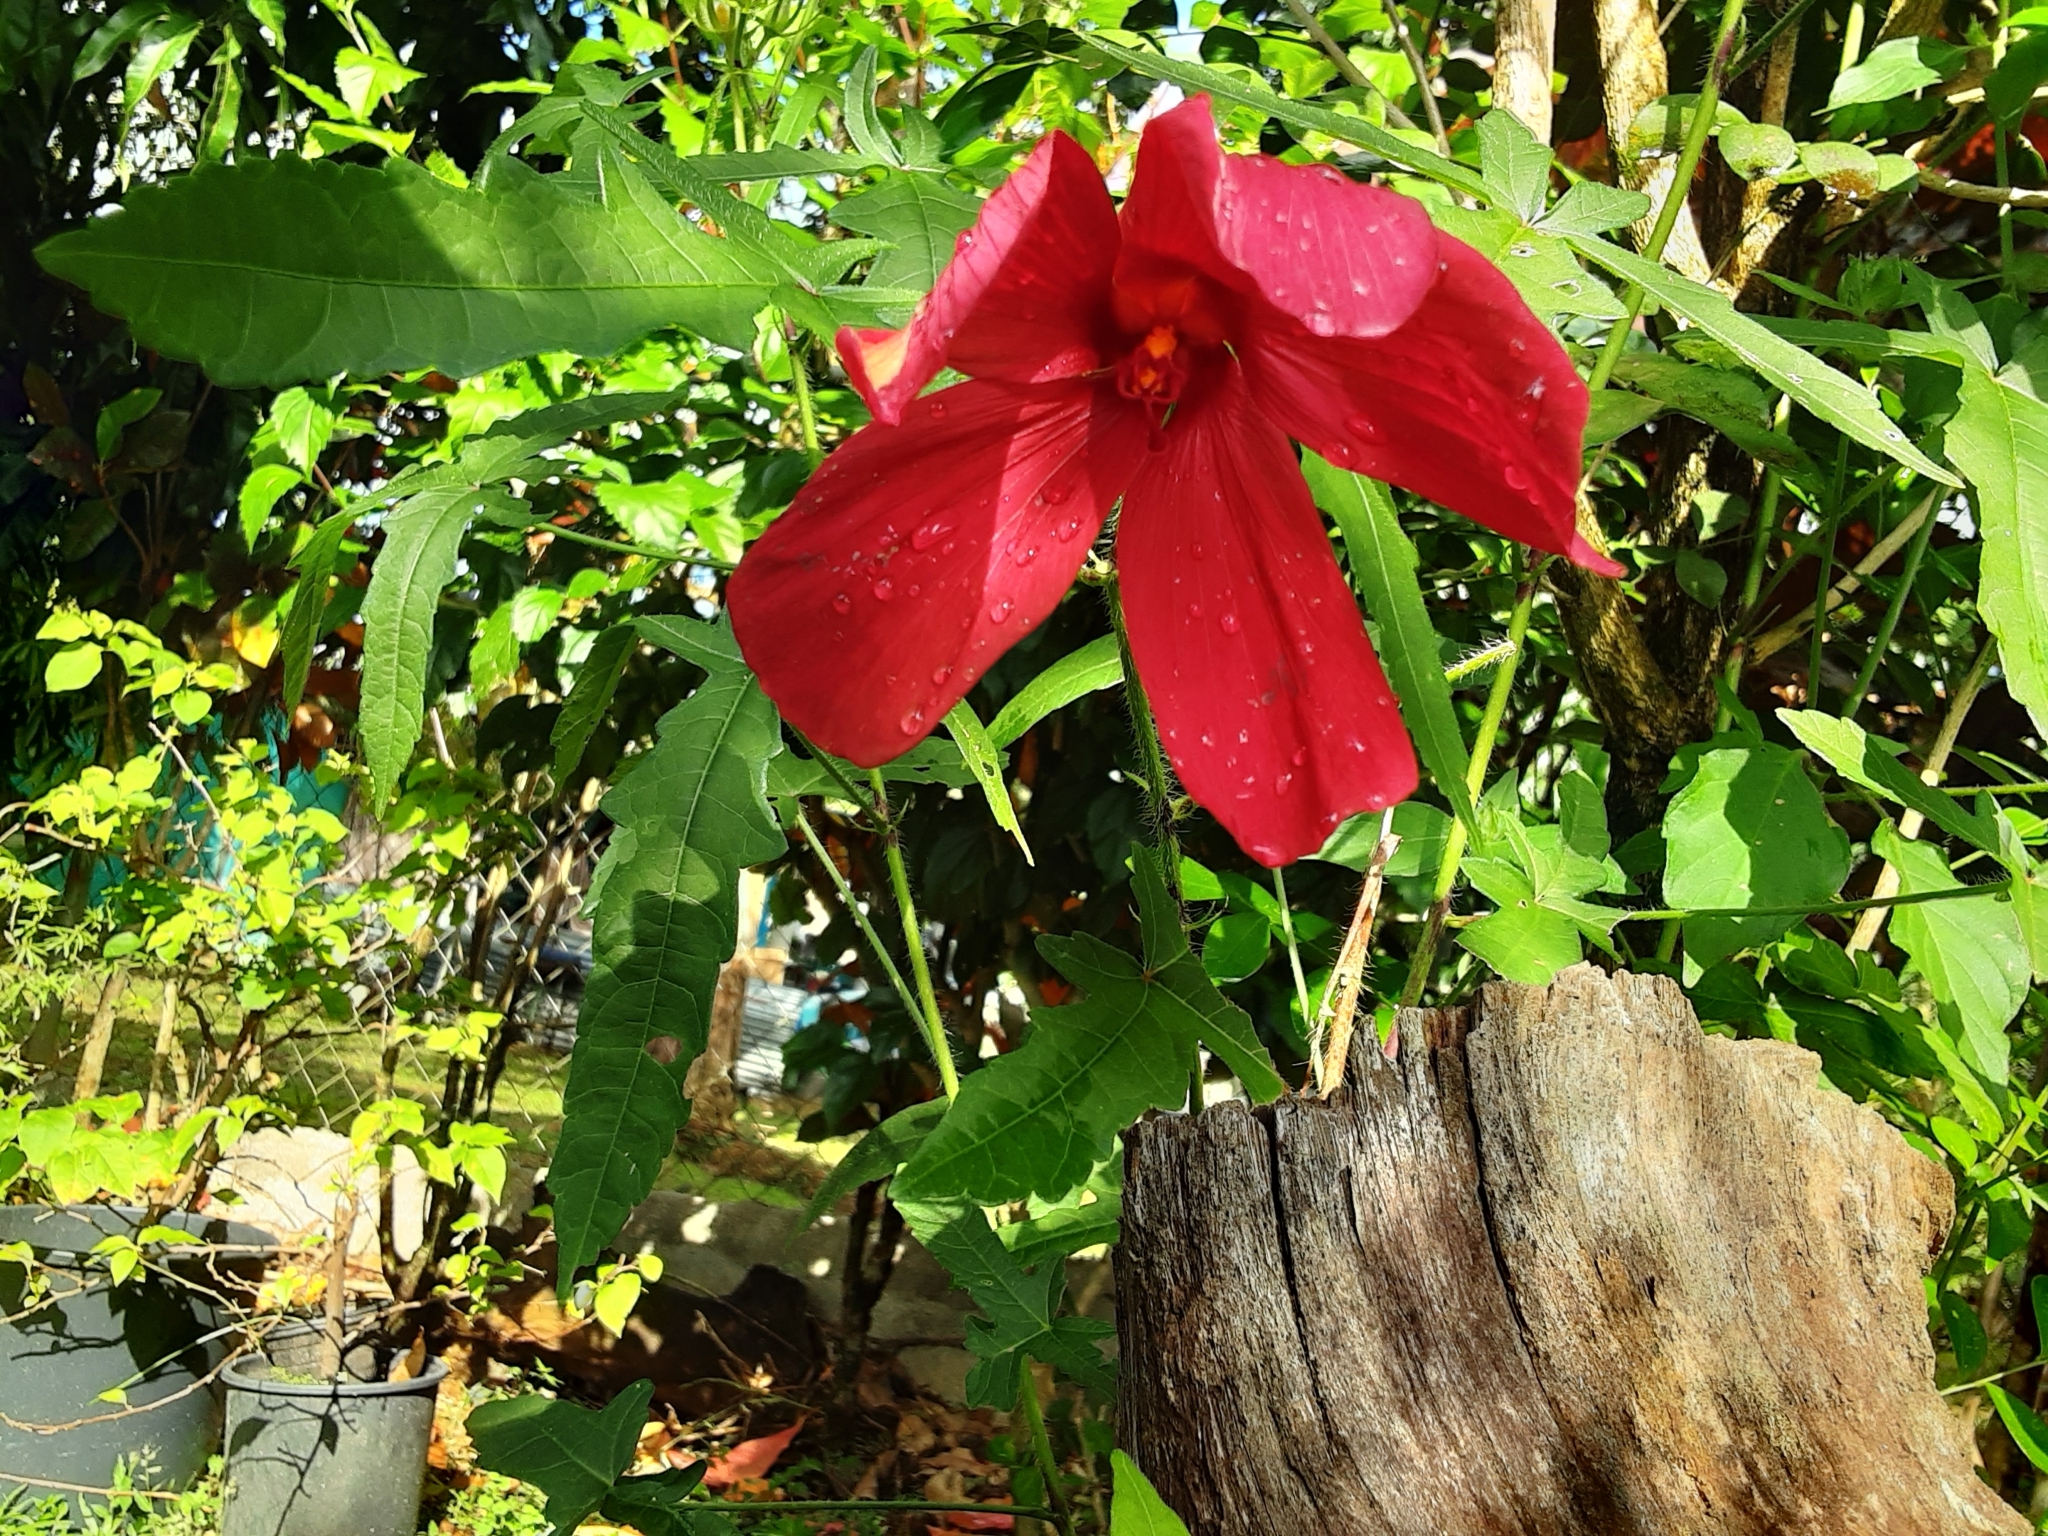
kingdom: Plantae
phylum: Tracheophyta
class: Magnoliopsida
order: Malvales
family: Malvaceae
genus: Abelmoschus
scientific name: Abelmoschus sagittifolius
